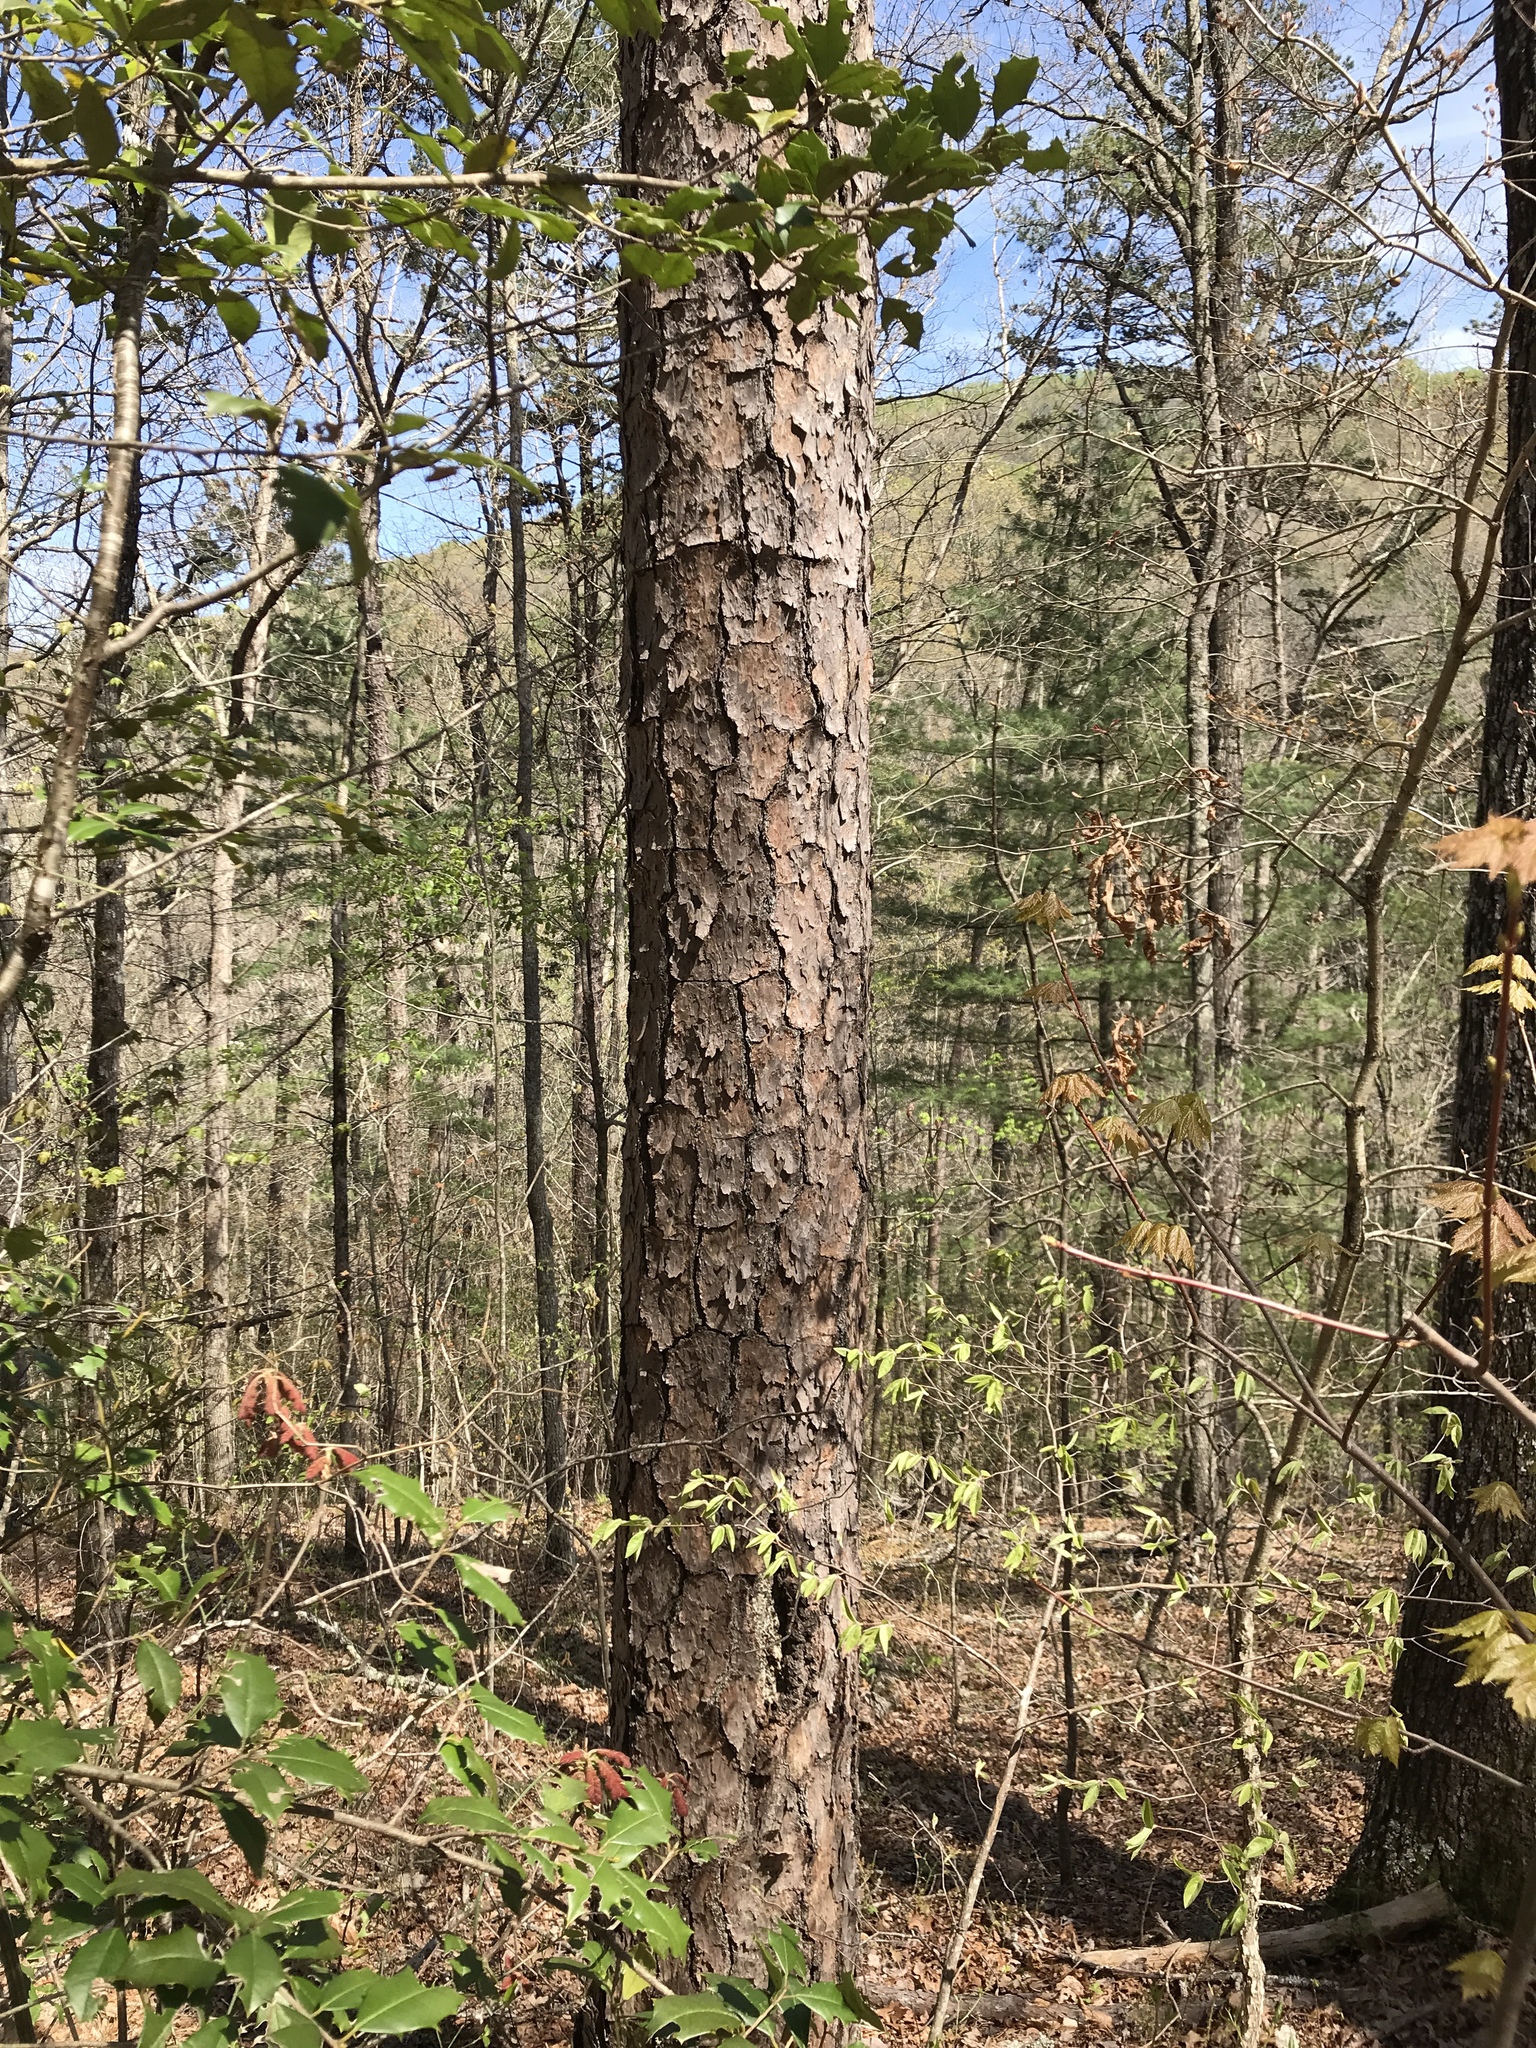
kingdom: Plantae
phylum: Tracheophyta
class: Pinopsida
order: Pinales
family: Pinaceae
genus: Pinus
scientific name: Pinus echinata
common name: Shortleaf pine
